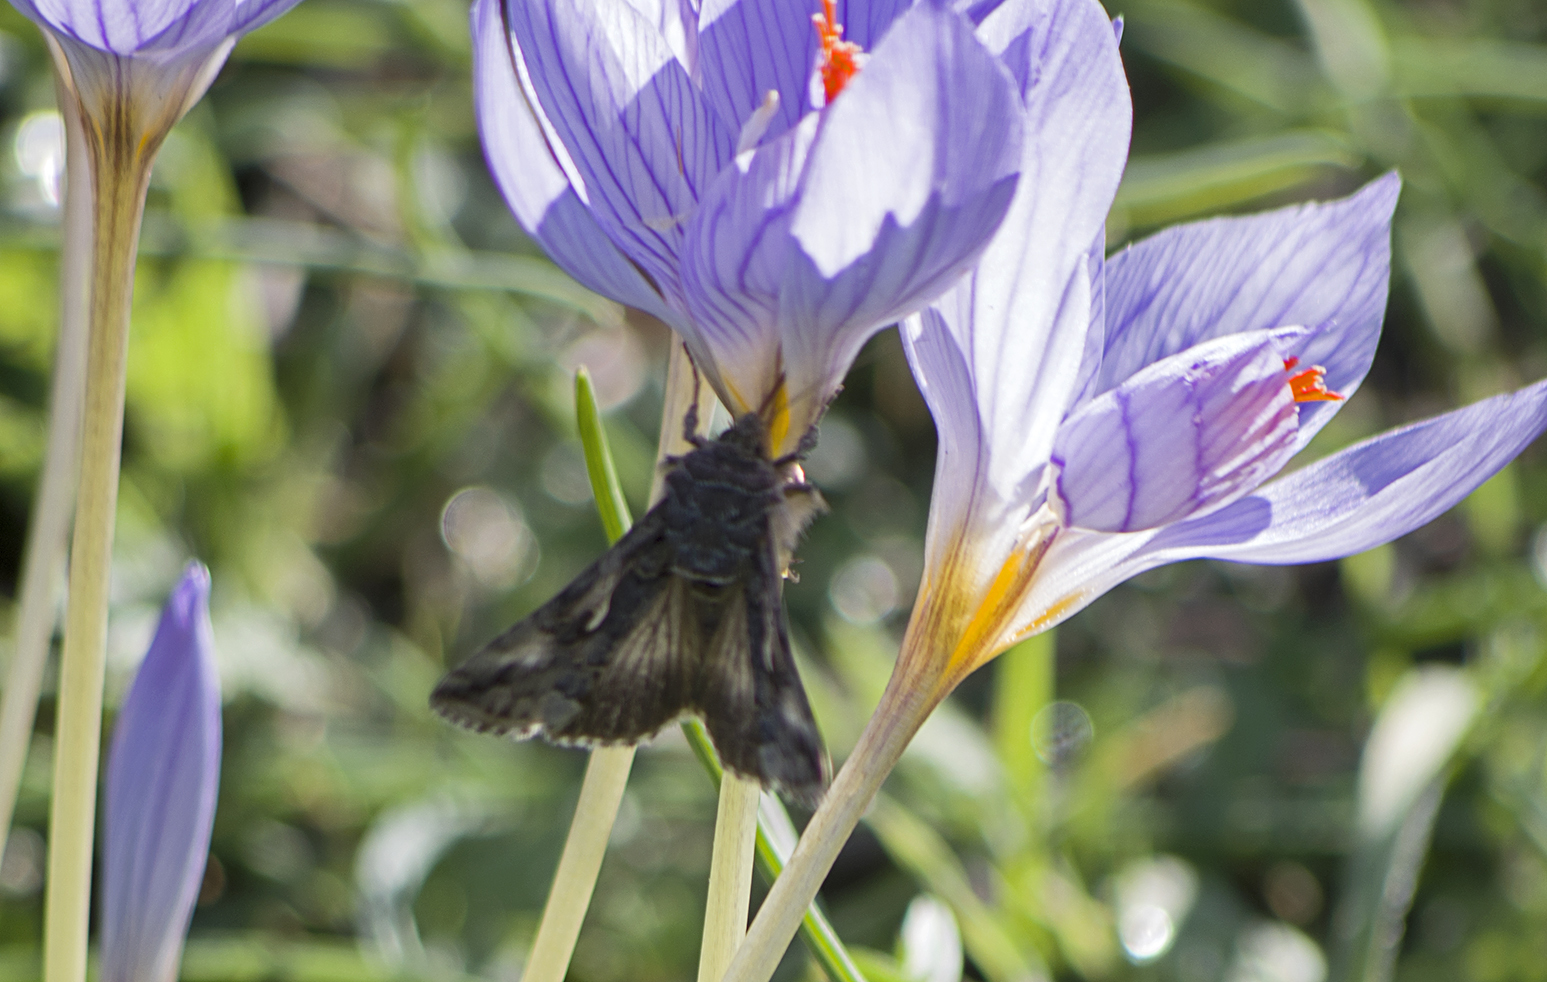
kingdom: Animalia
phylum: Arthropoda
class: Insecta
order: Lepidoptera
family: Noctuidae
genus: Autographa
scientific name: Autographa gamma
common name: Silver y
